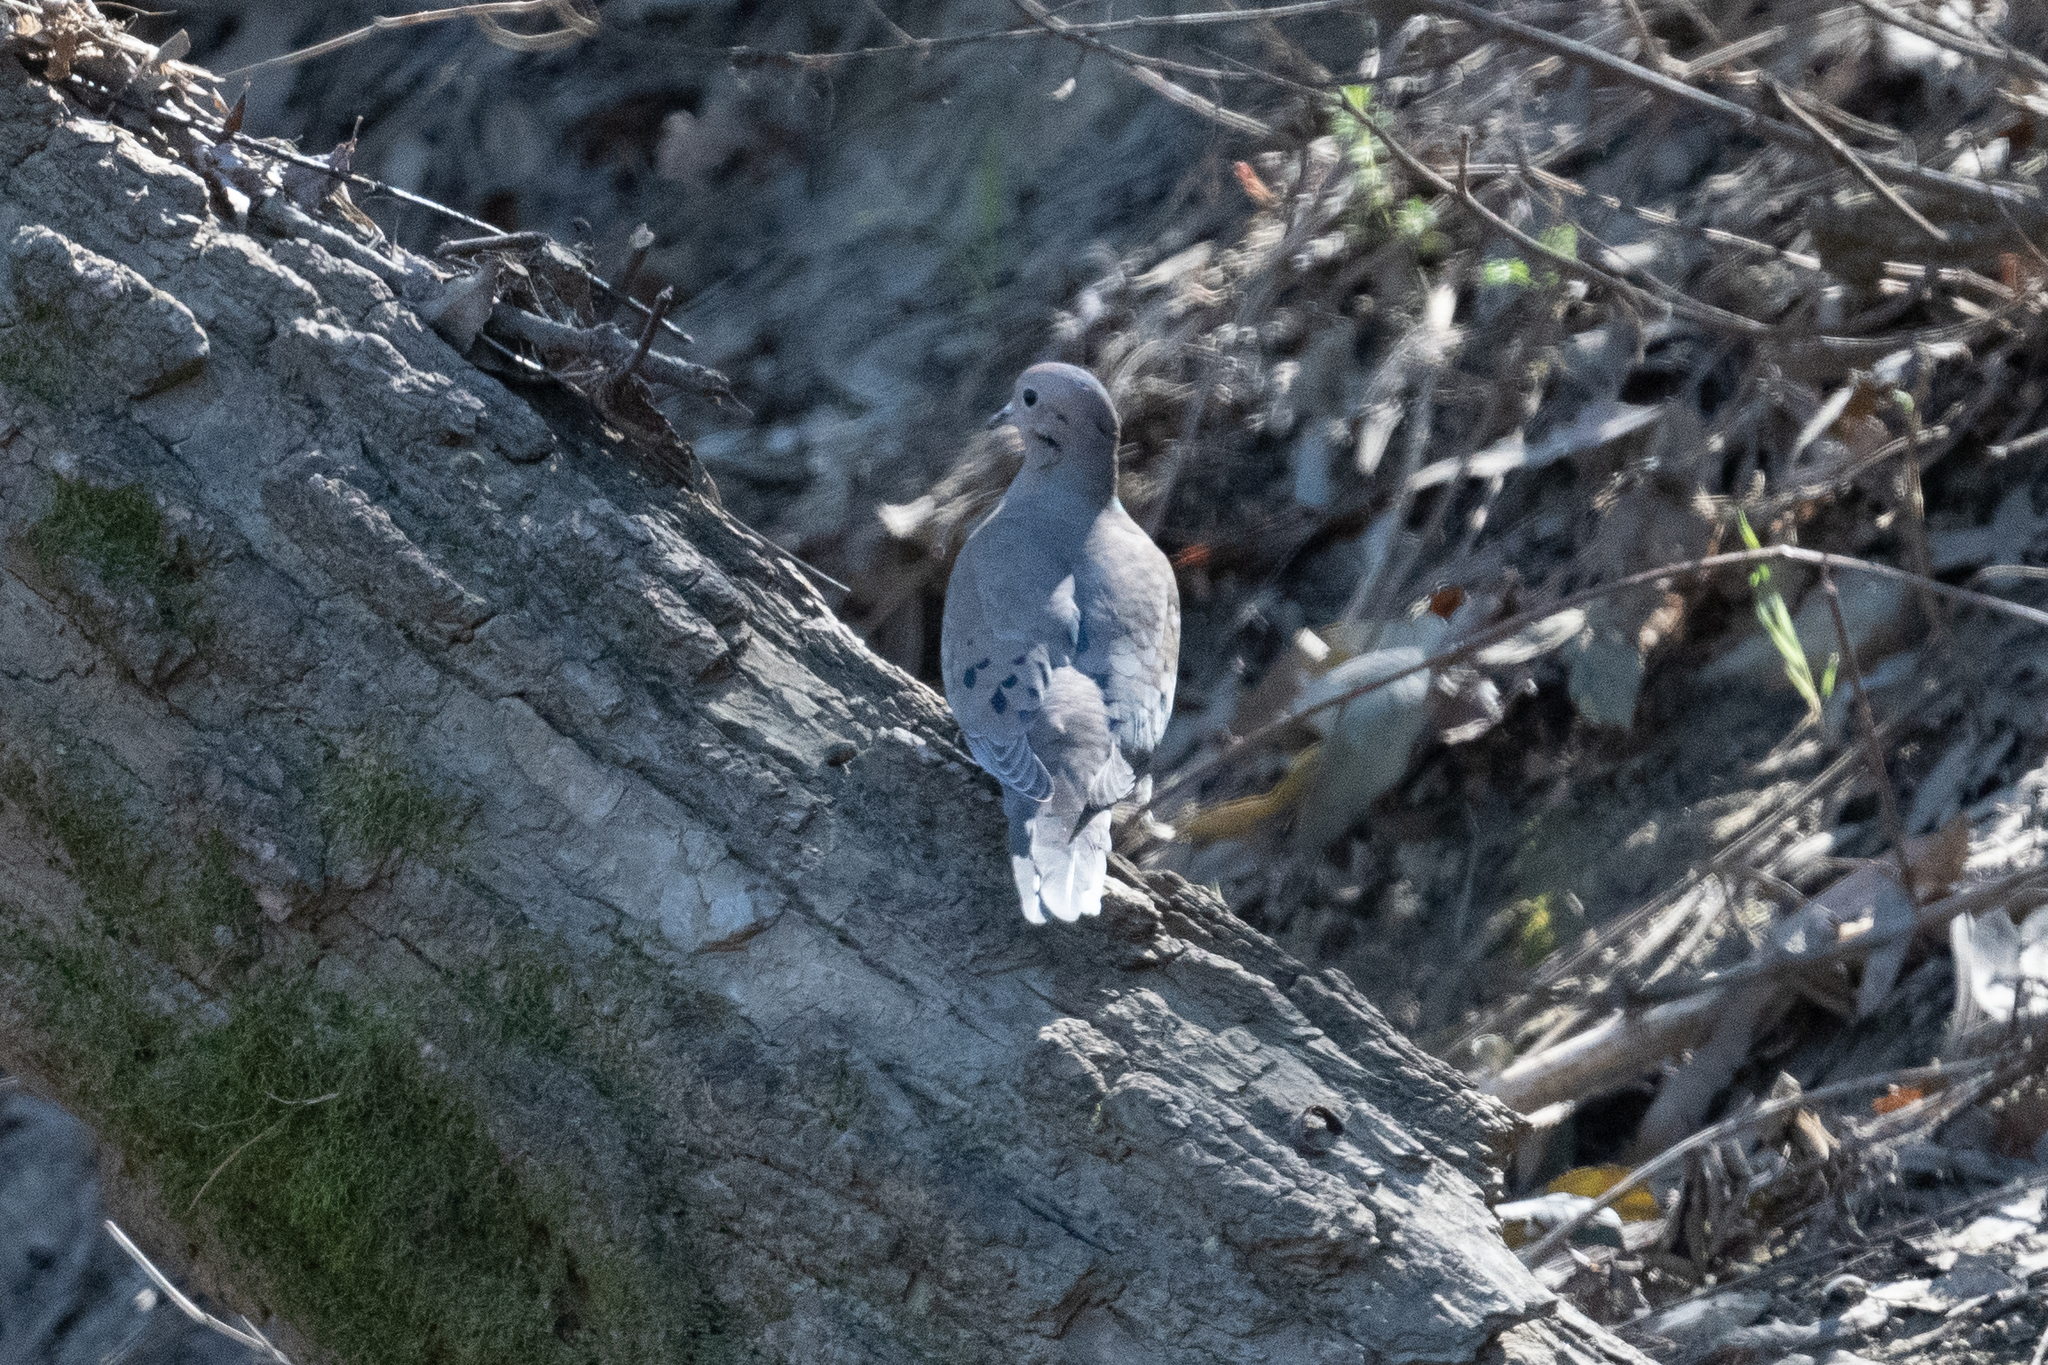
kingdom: Animalia
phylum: Chordata
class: Aves
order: Columbiformes
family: Columbidae
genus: Zenaida
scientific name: Zenaida macroura
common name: Mourning dove
